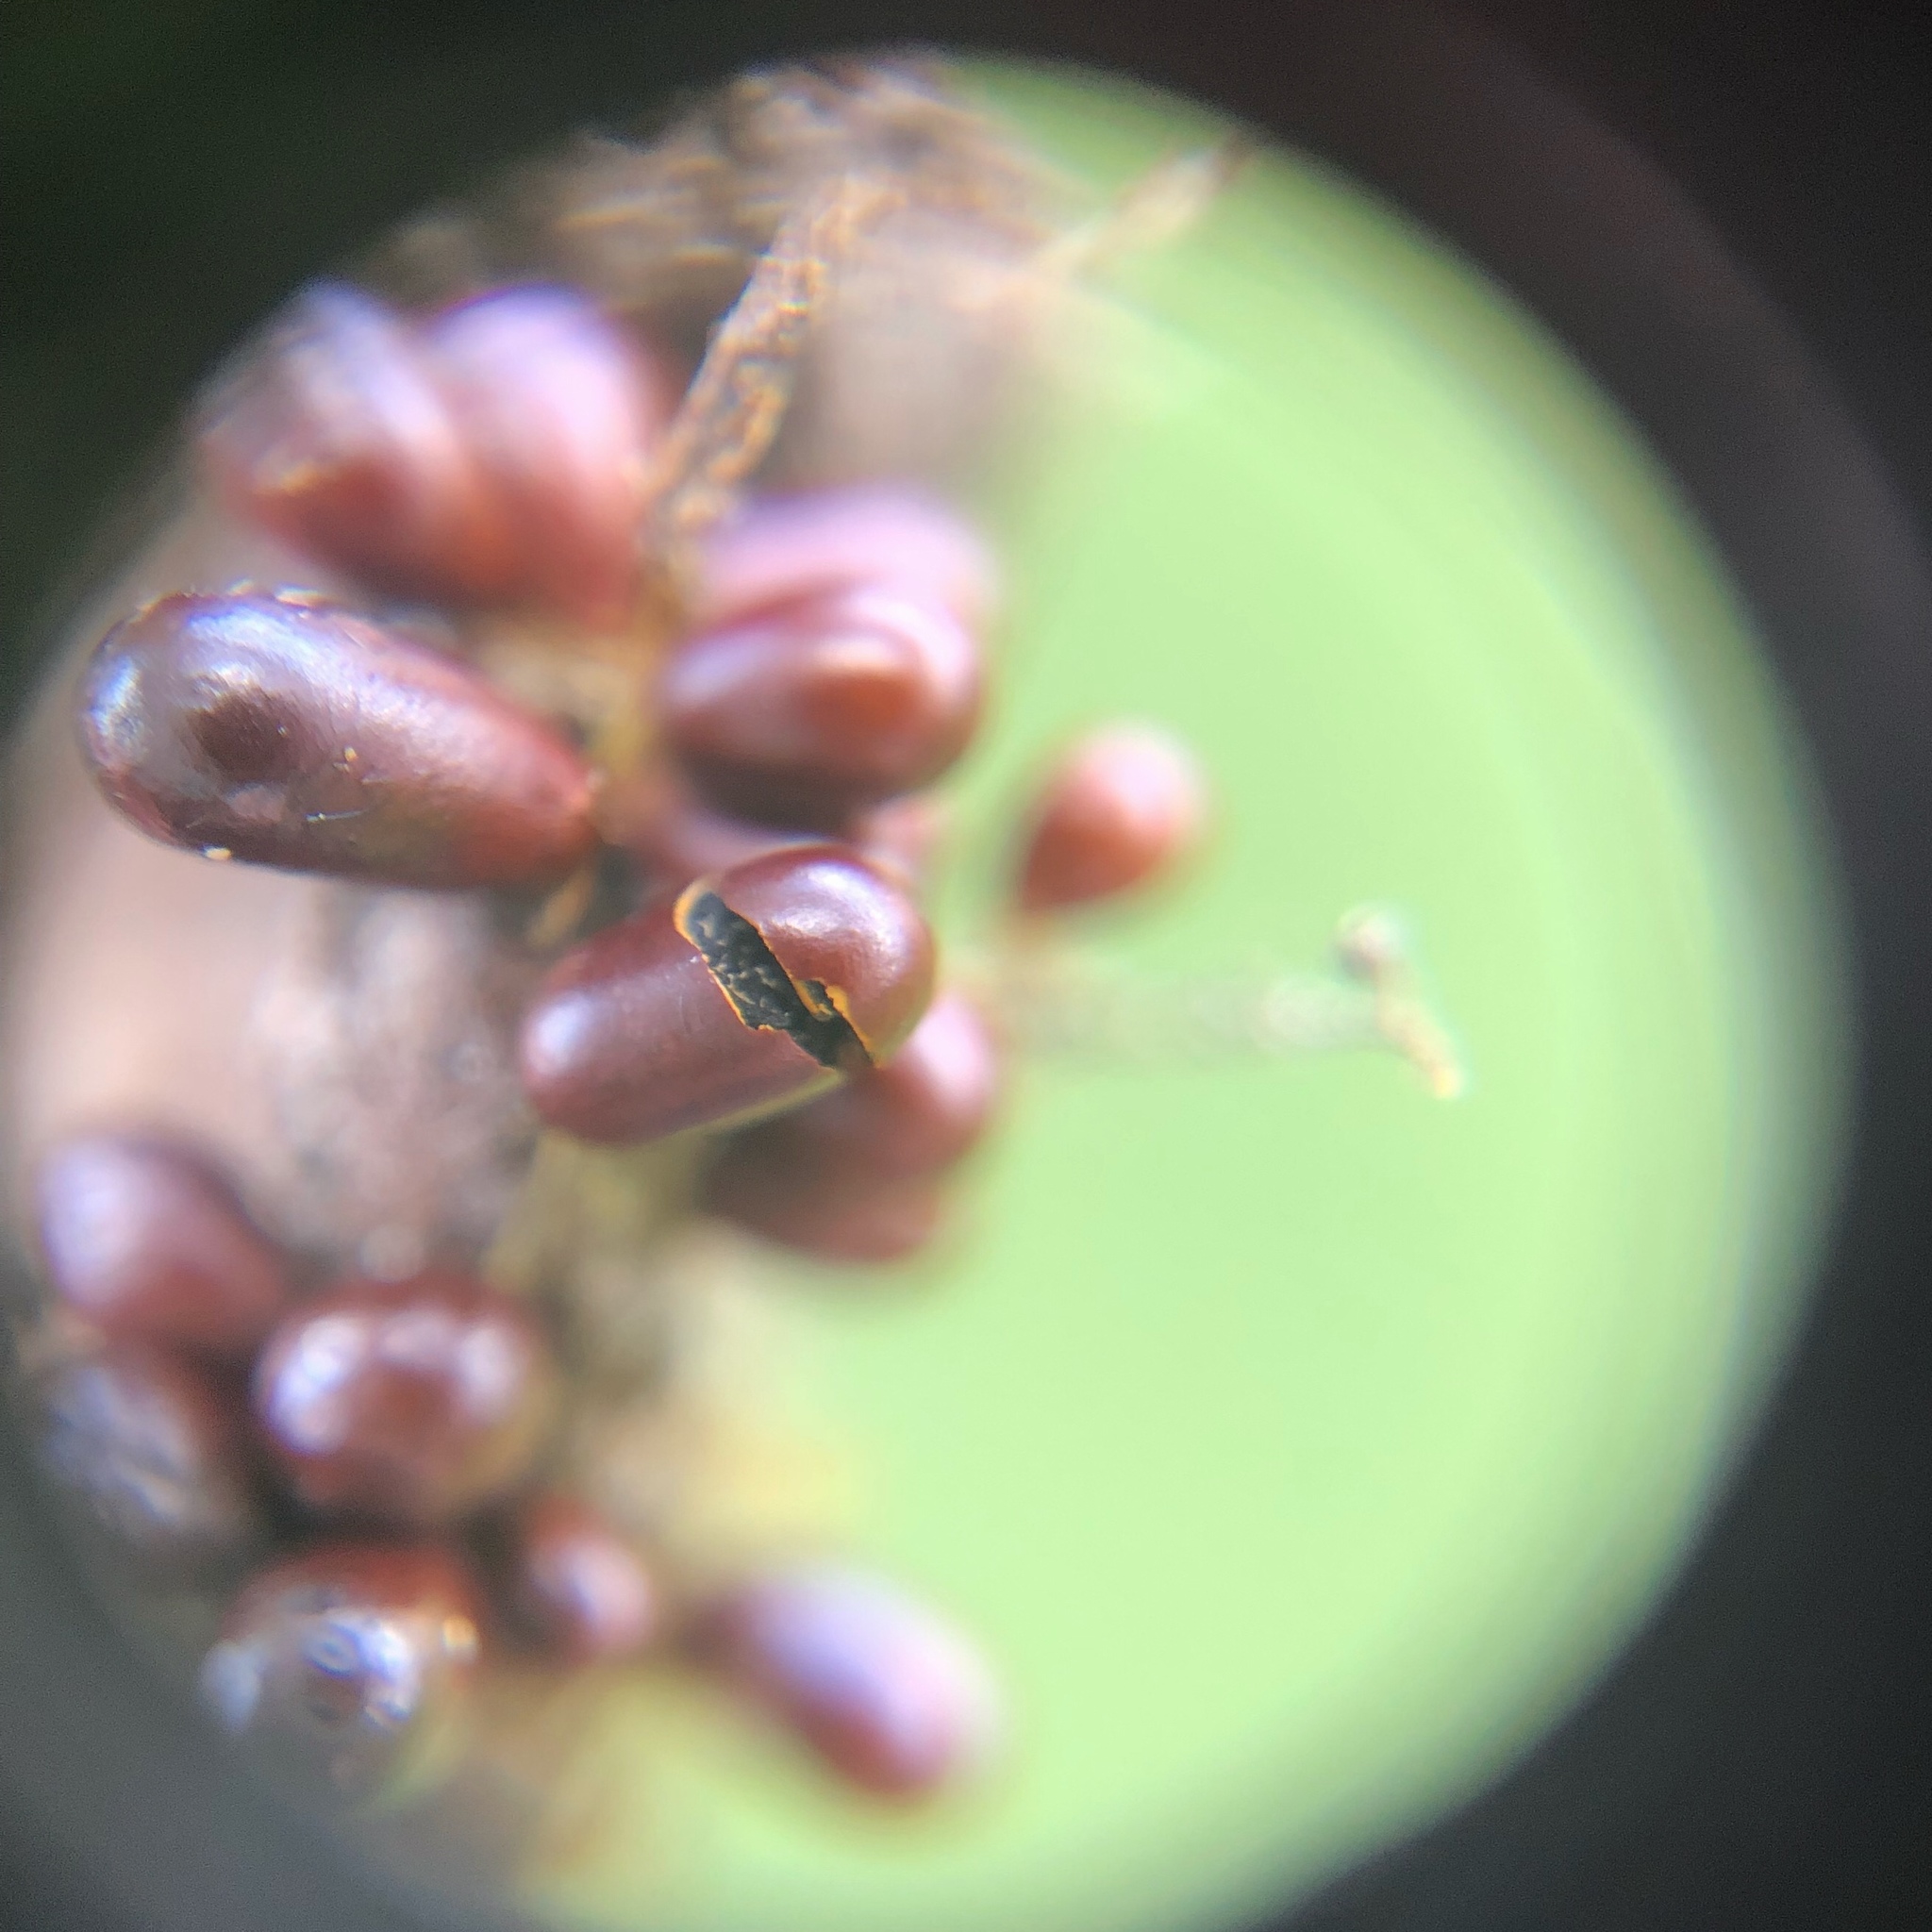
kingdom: Protozoa
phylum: Mycetozoa
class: Myxomycetes
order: Physarales
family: Physaraceae
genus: Leocarpus
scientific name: Leocarpus fragilis
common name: Insect-egg slime
